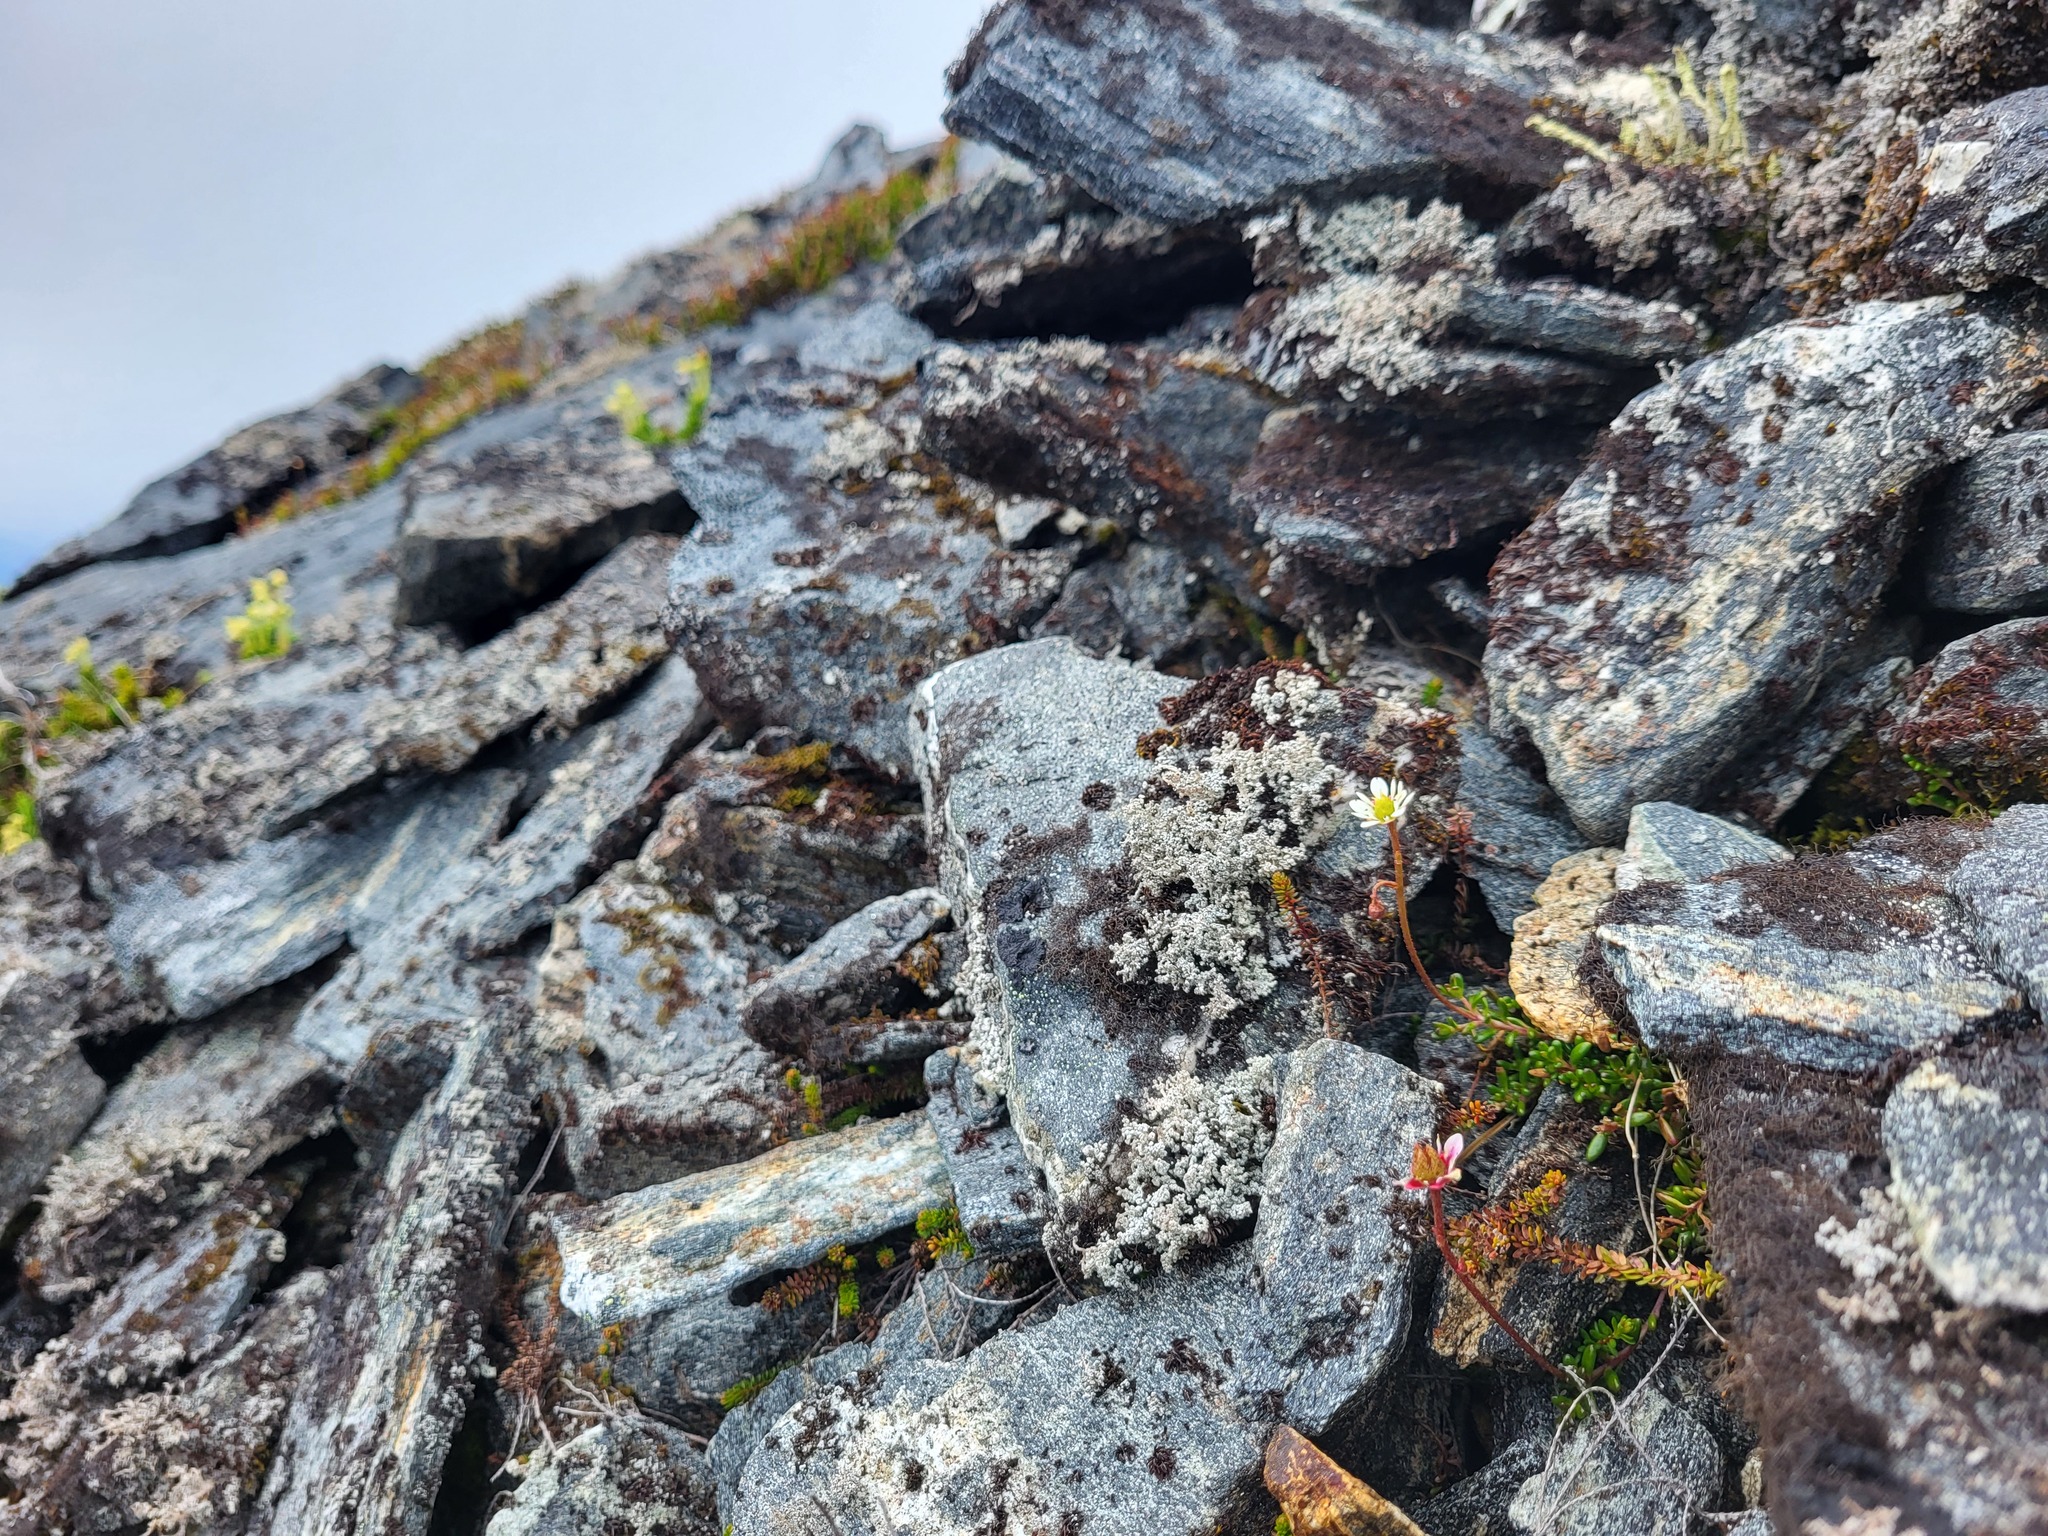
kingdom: Plantae
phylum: Tracheophyta
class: Magnoliopsida
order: Saxifragales
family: Saxifragaceae
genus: Micranthes
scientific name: Micranthes tolmiei
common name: Tolmie's saxifrage
